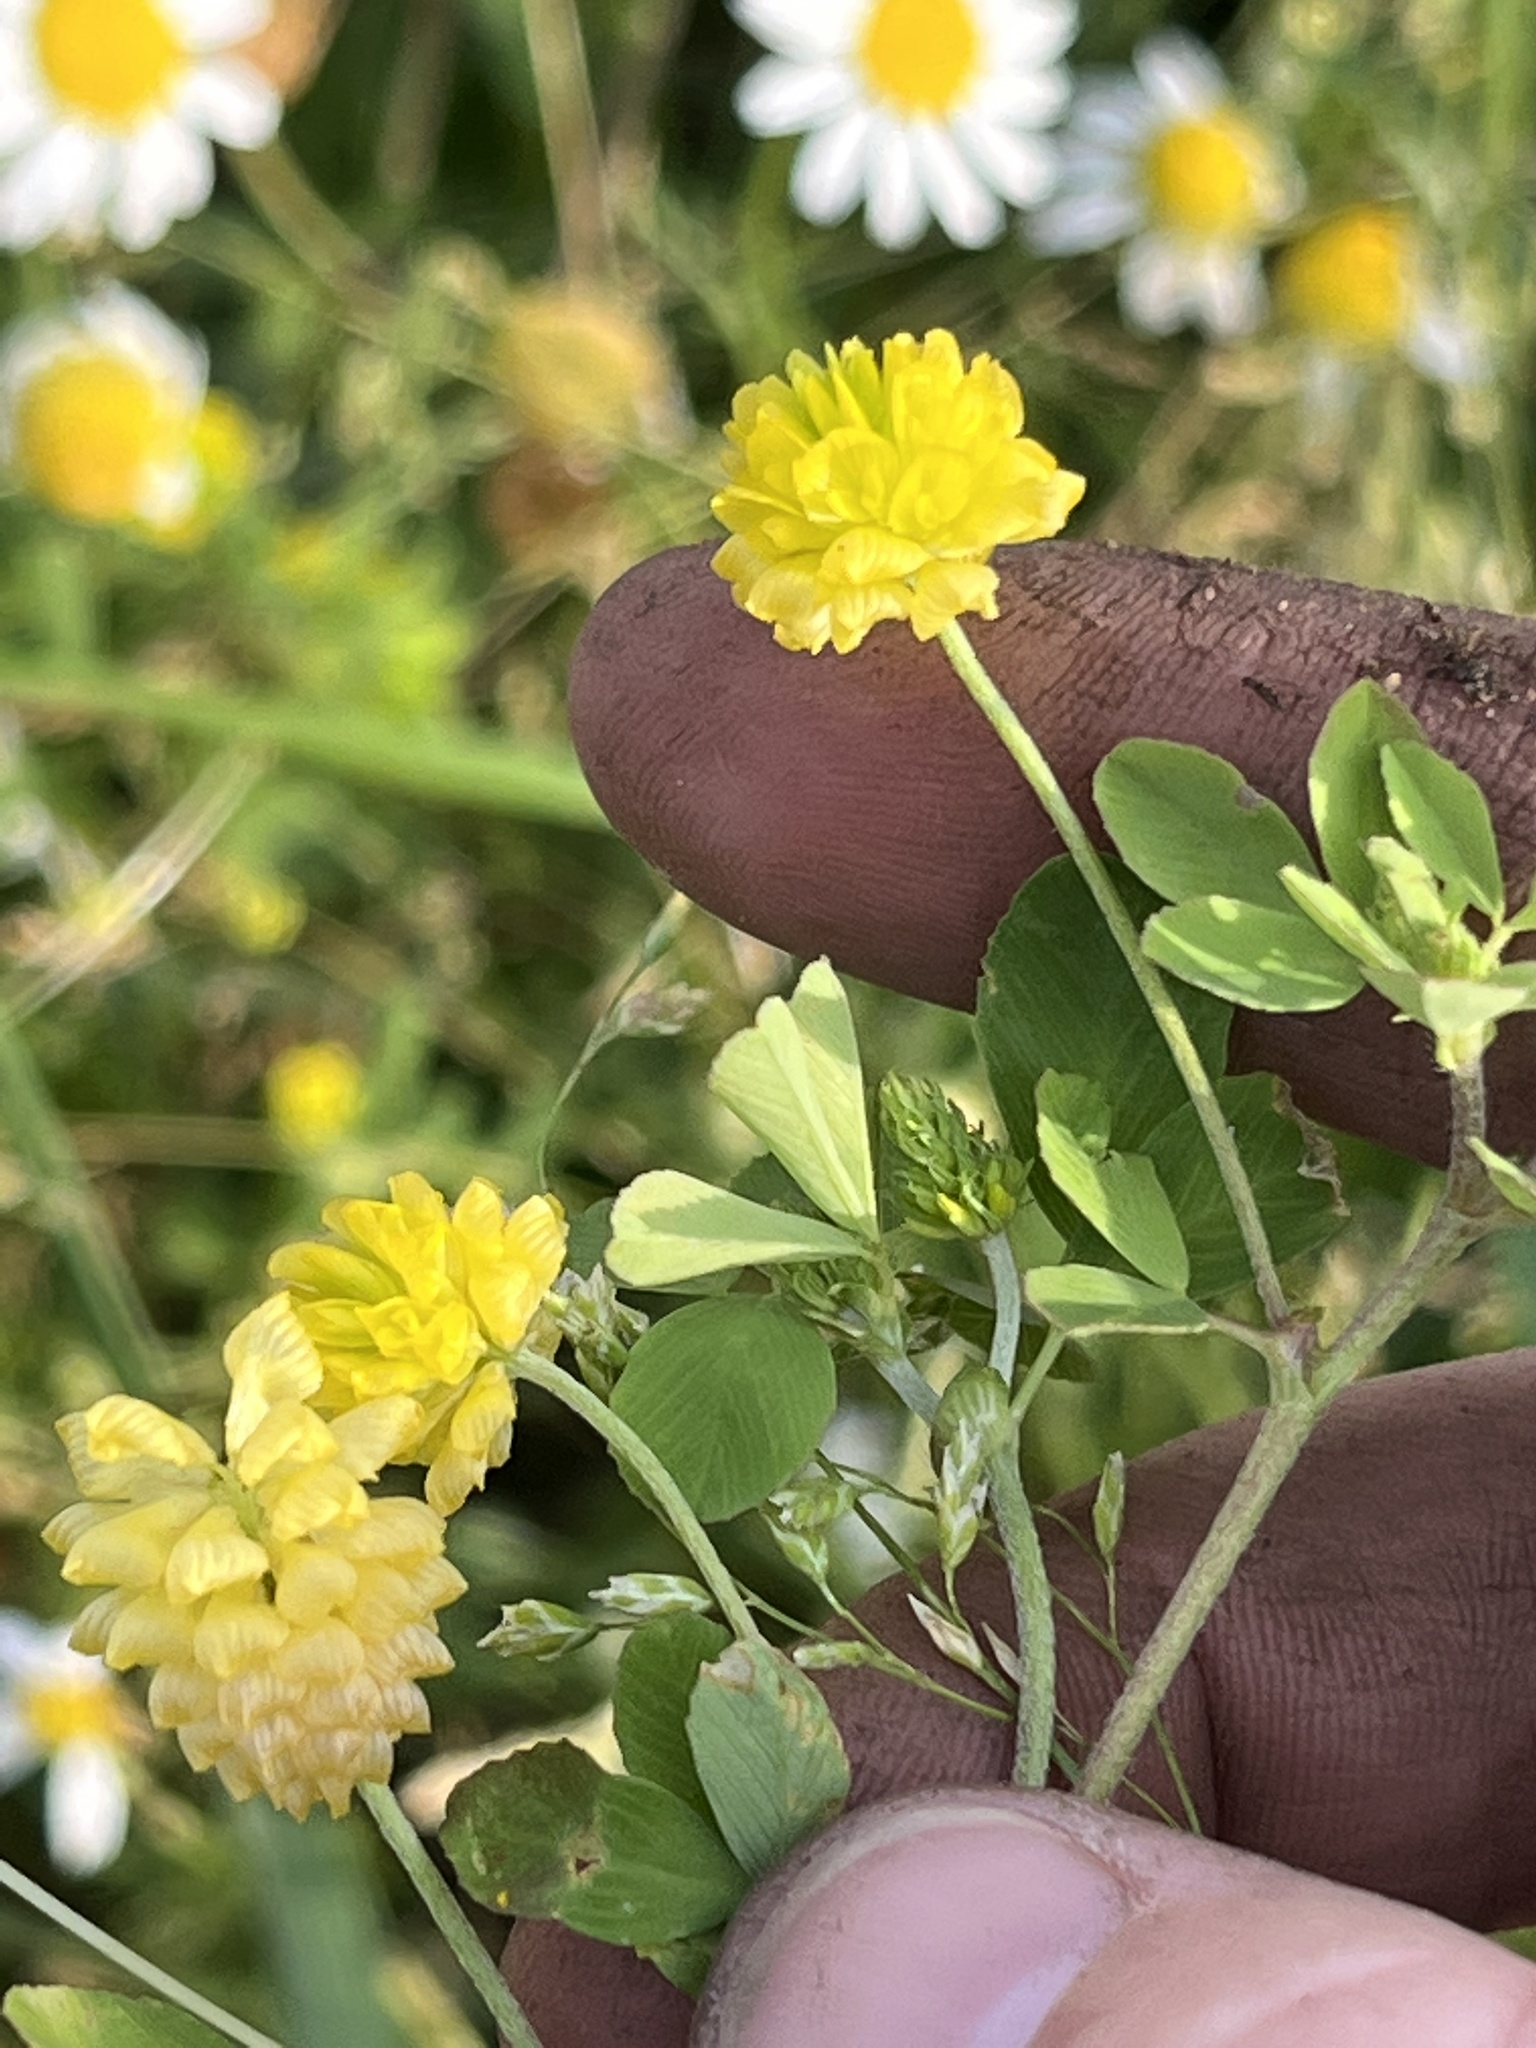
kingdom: Plantae
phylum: Tracheophyta
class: Magnoliopsida
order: Fabales
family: Fabaceae
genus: Trifolium
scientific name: Trifolium campestre
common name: Field clover
